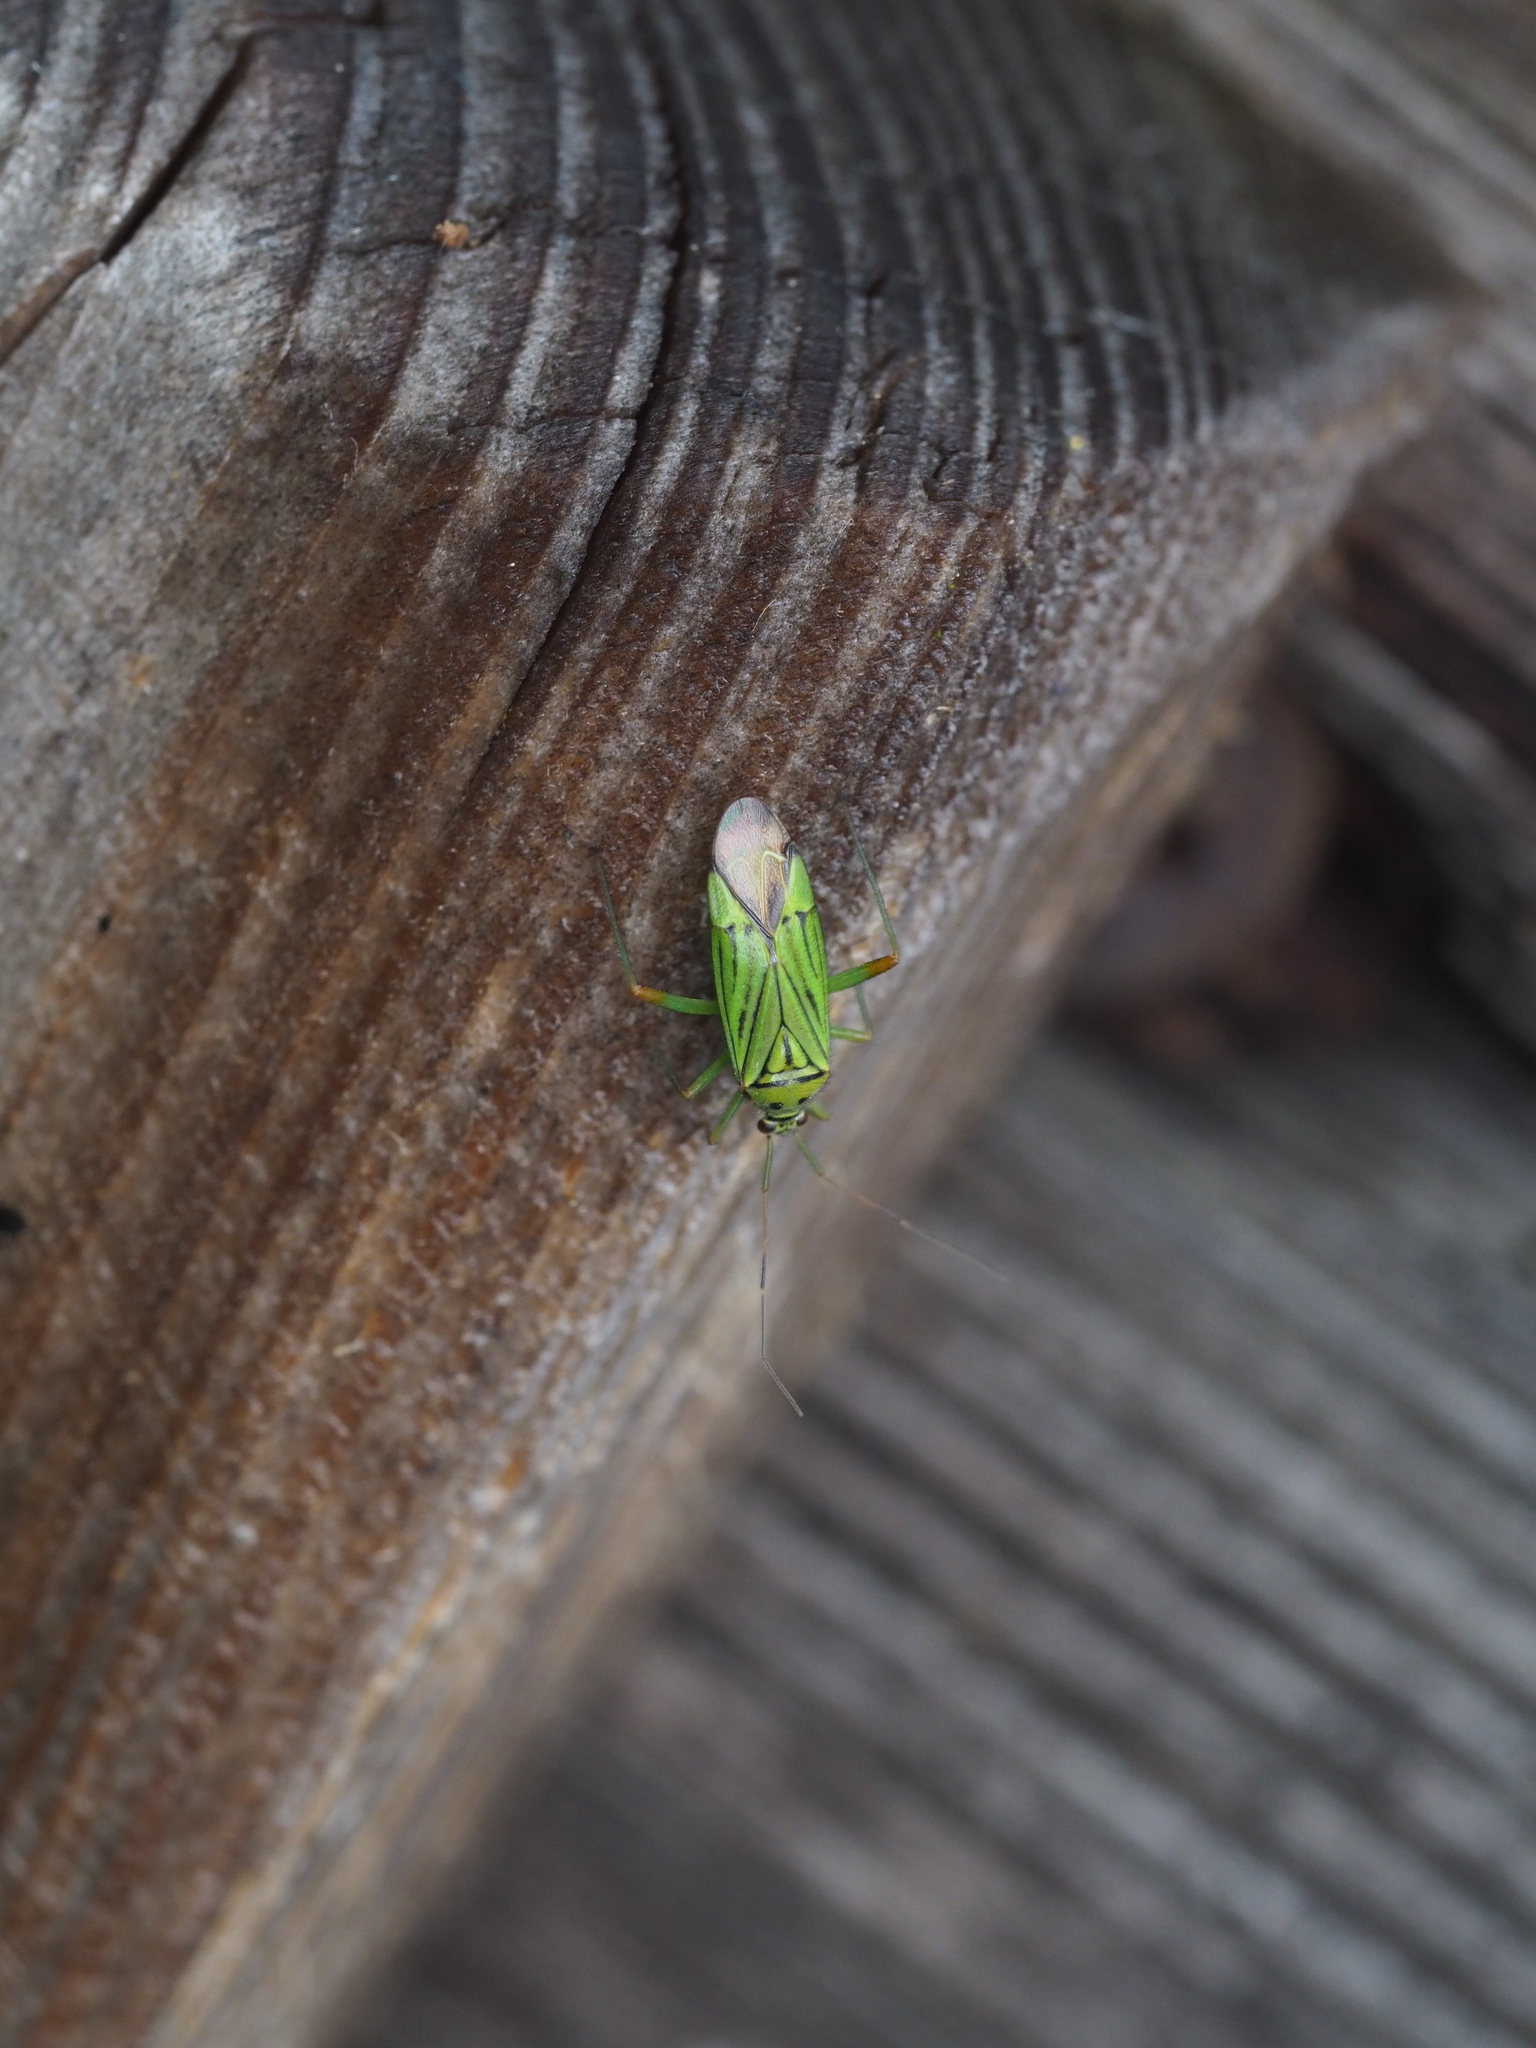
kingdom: Animalia
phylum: Arthropoda
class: Insecta
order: Hemiptera
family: Miridae
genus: Mermitelocerus
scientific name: Mermitelocerus schmidtii
